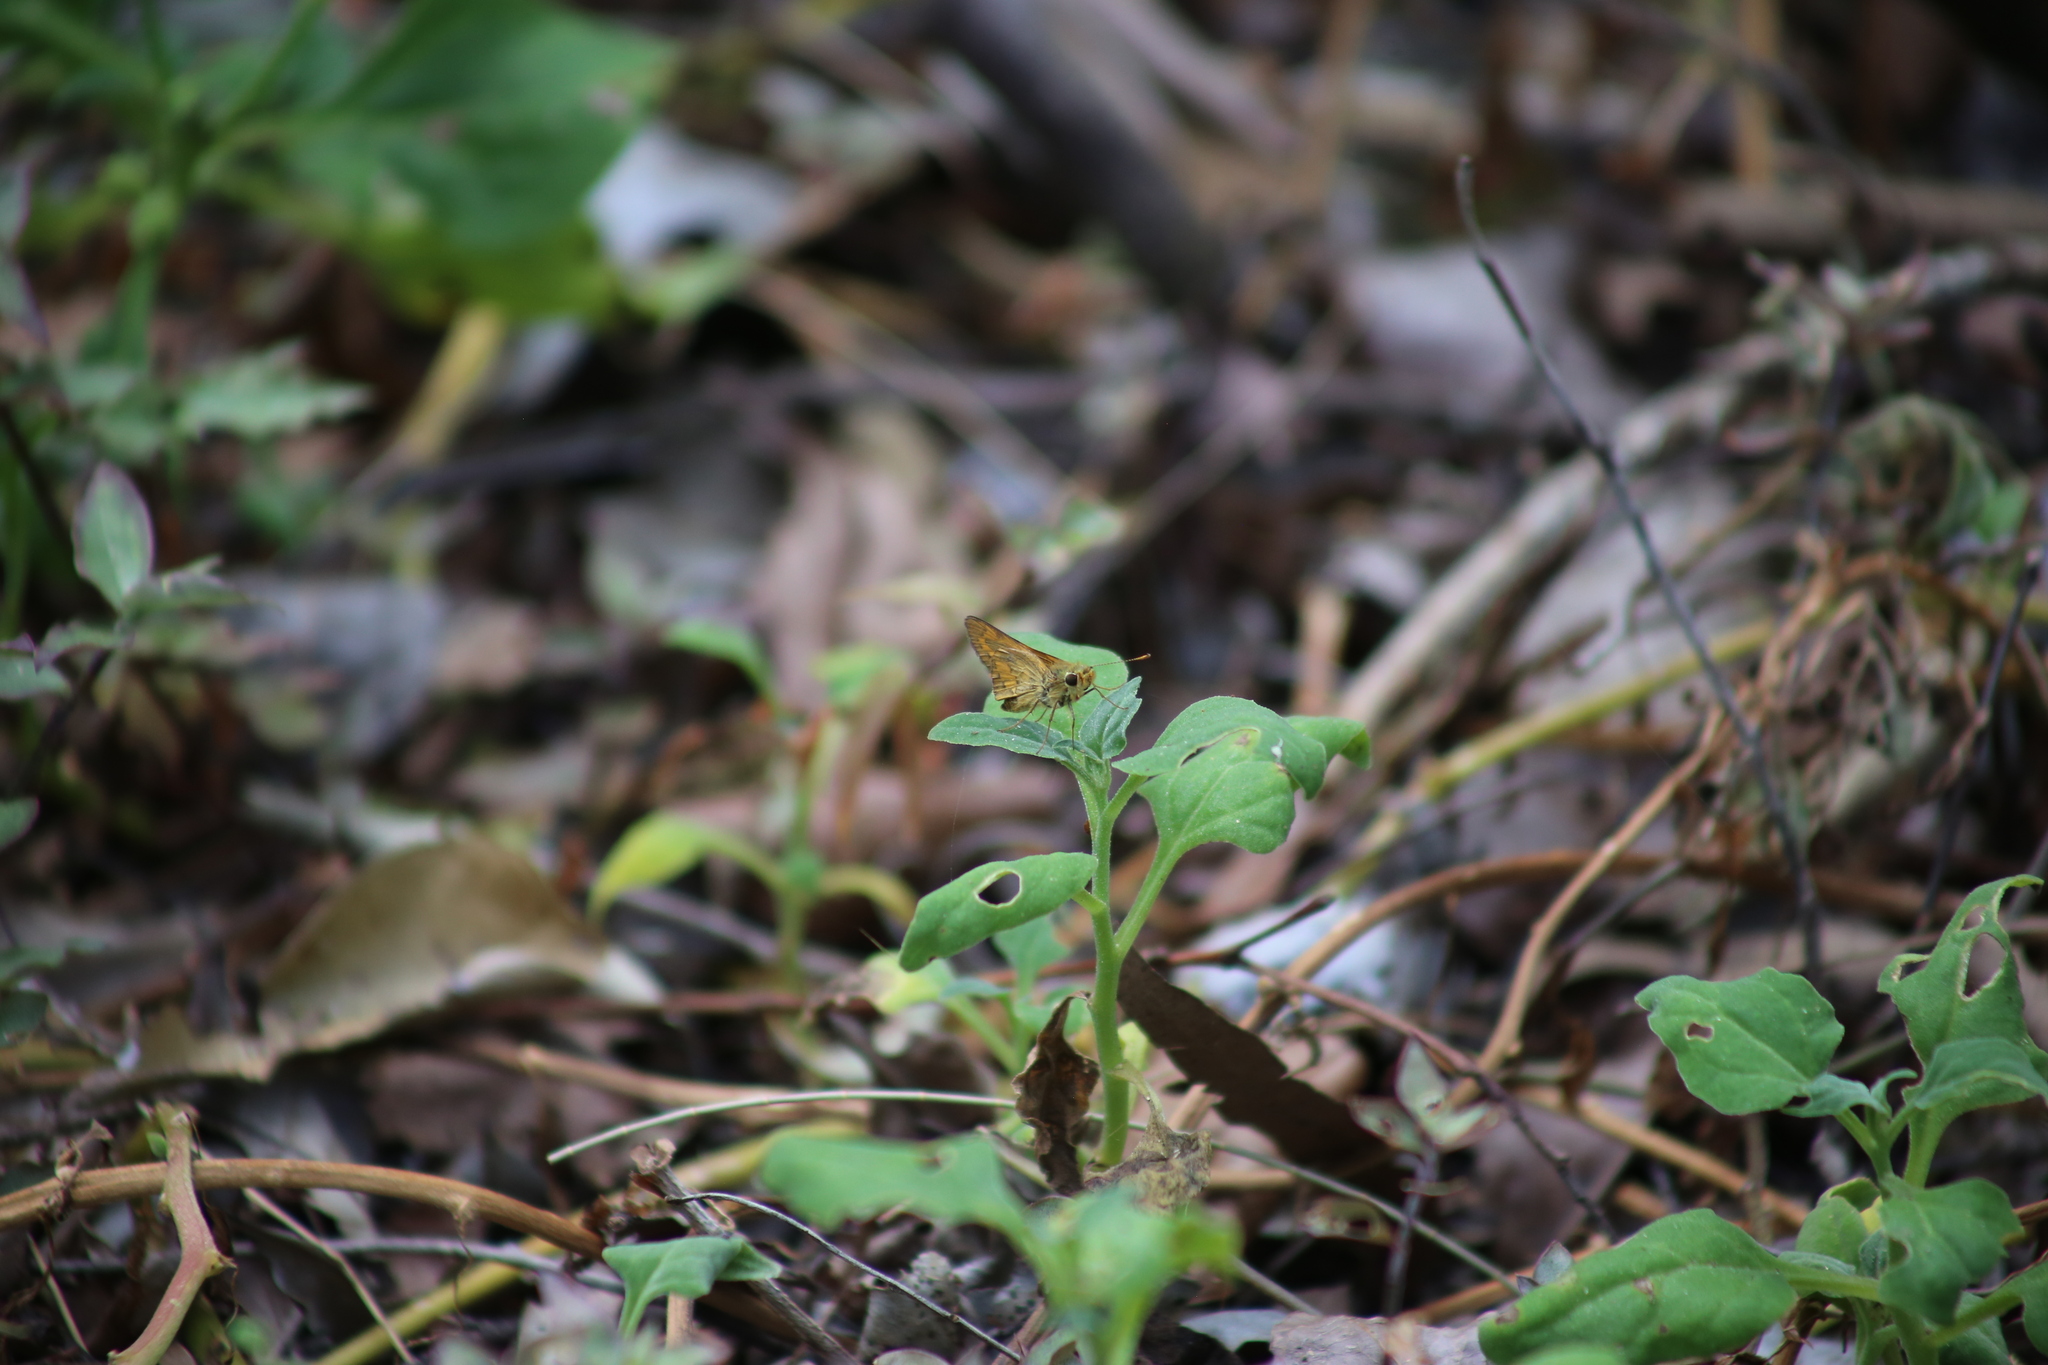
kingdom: Animalia
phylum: Arthropoda
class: Insecta
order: Lepidoptera
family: Hesperiidae
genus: Telicota
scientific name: Telicota colon
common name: Pale palm dart
